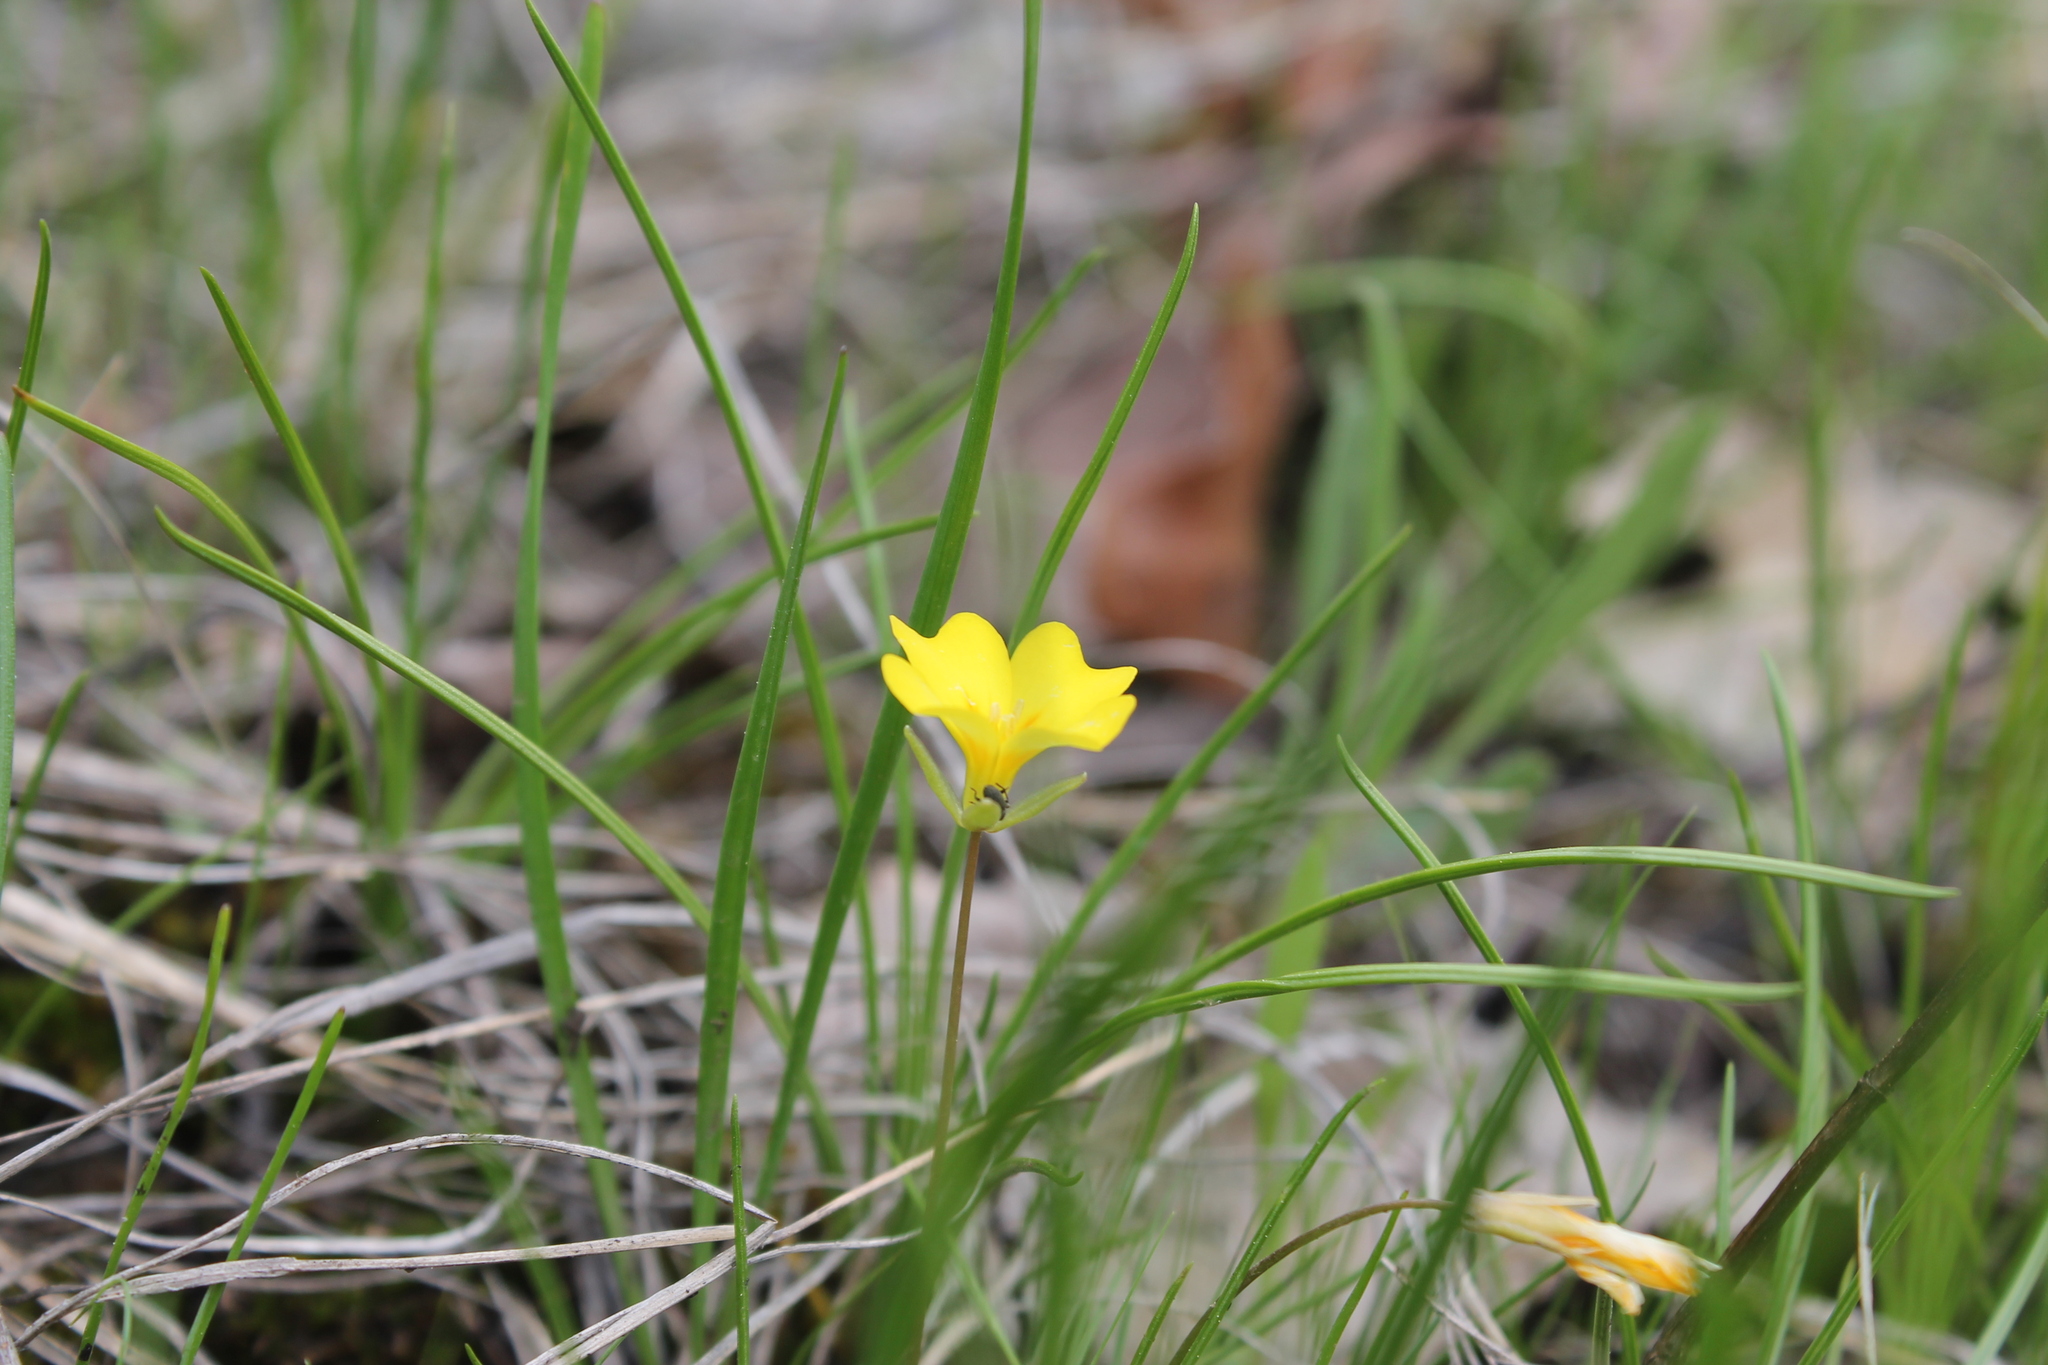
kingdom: Plantae
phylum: Tracheophyta
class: Magnoliopsida
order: Brassicales
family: Brassicaceae
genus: Leavenworthia
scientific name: Leavenworthia stylosa
